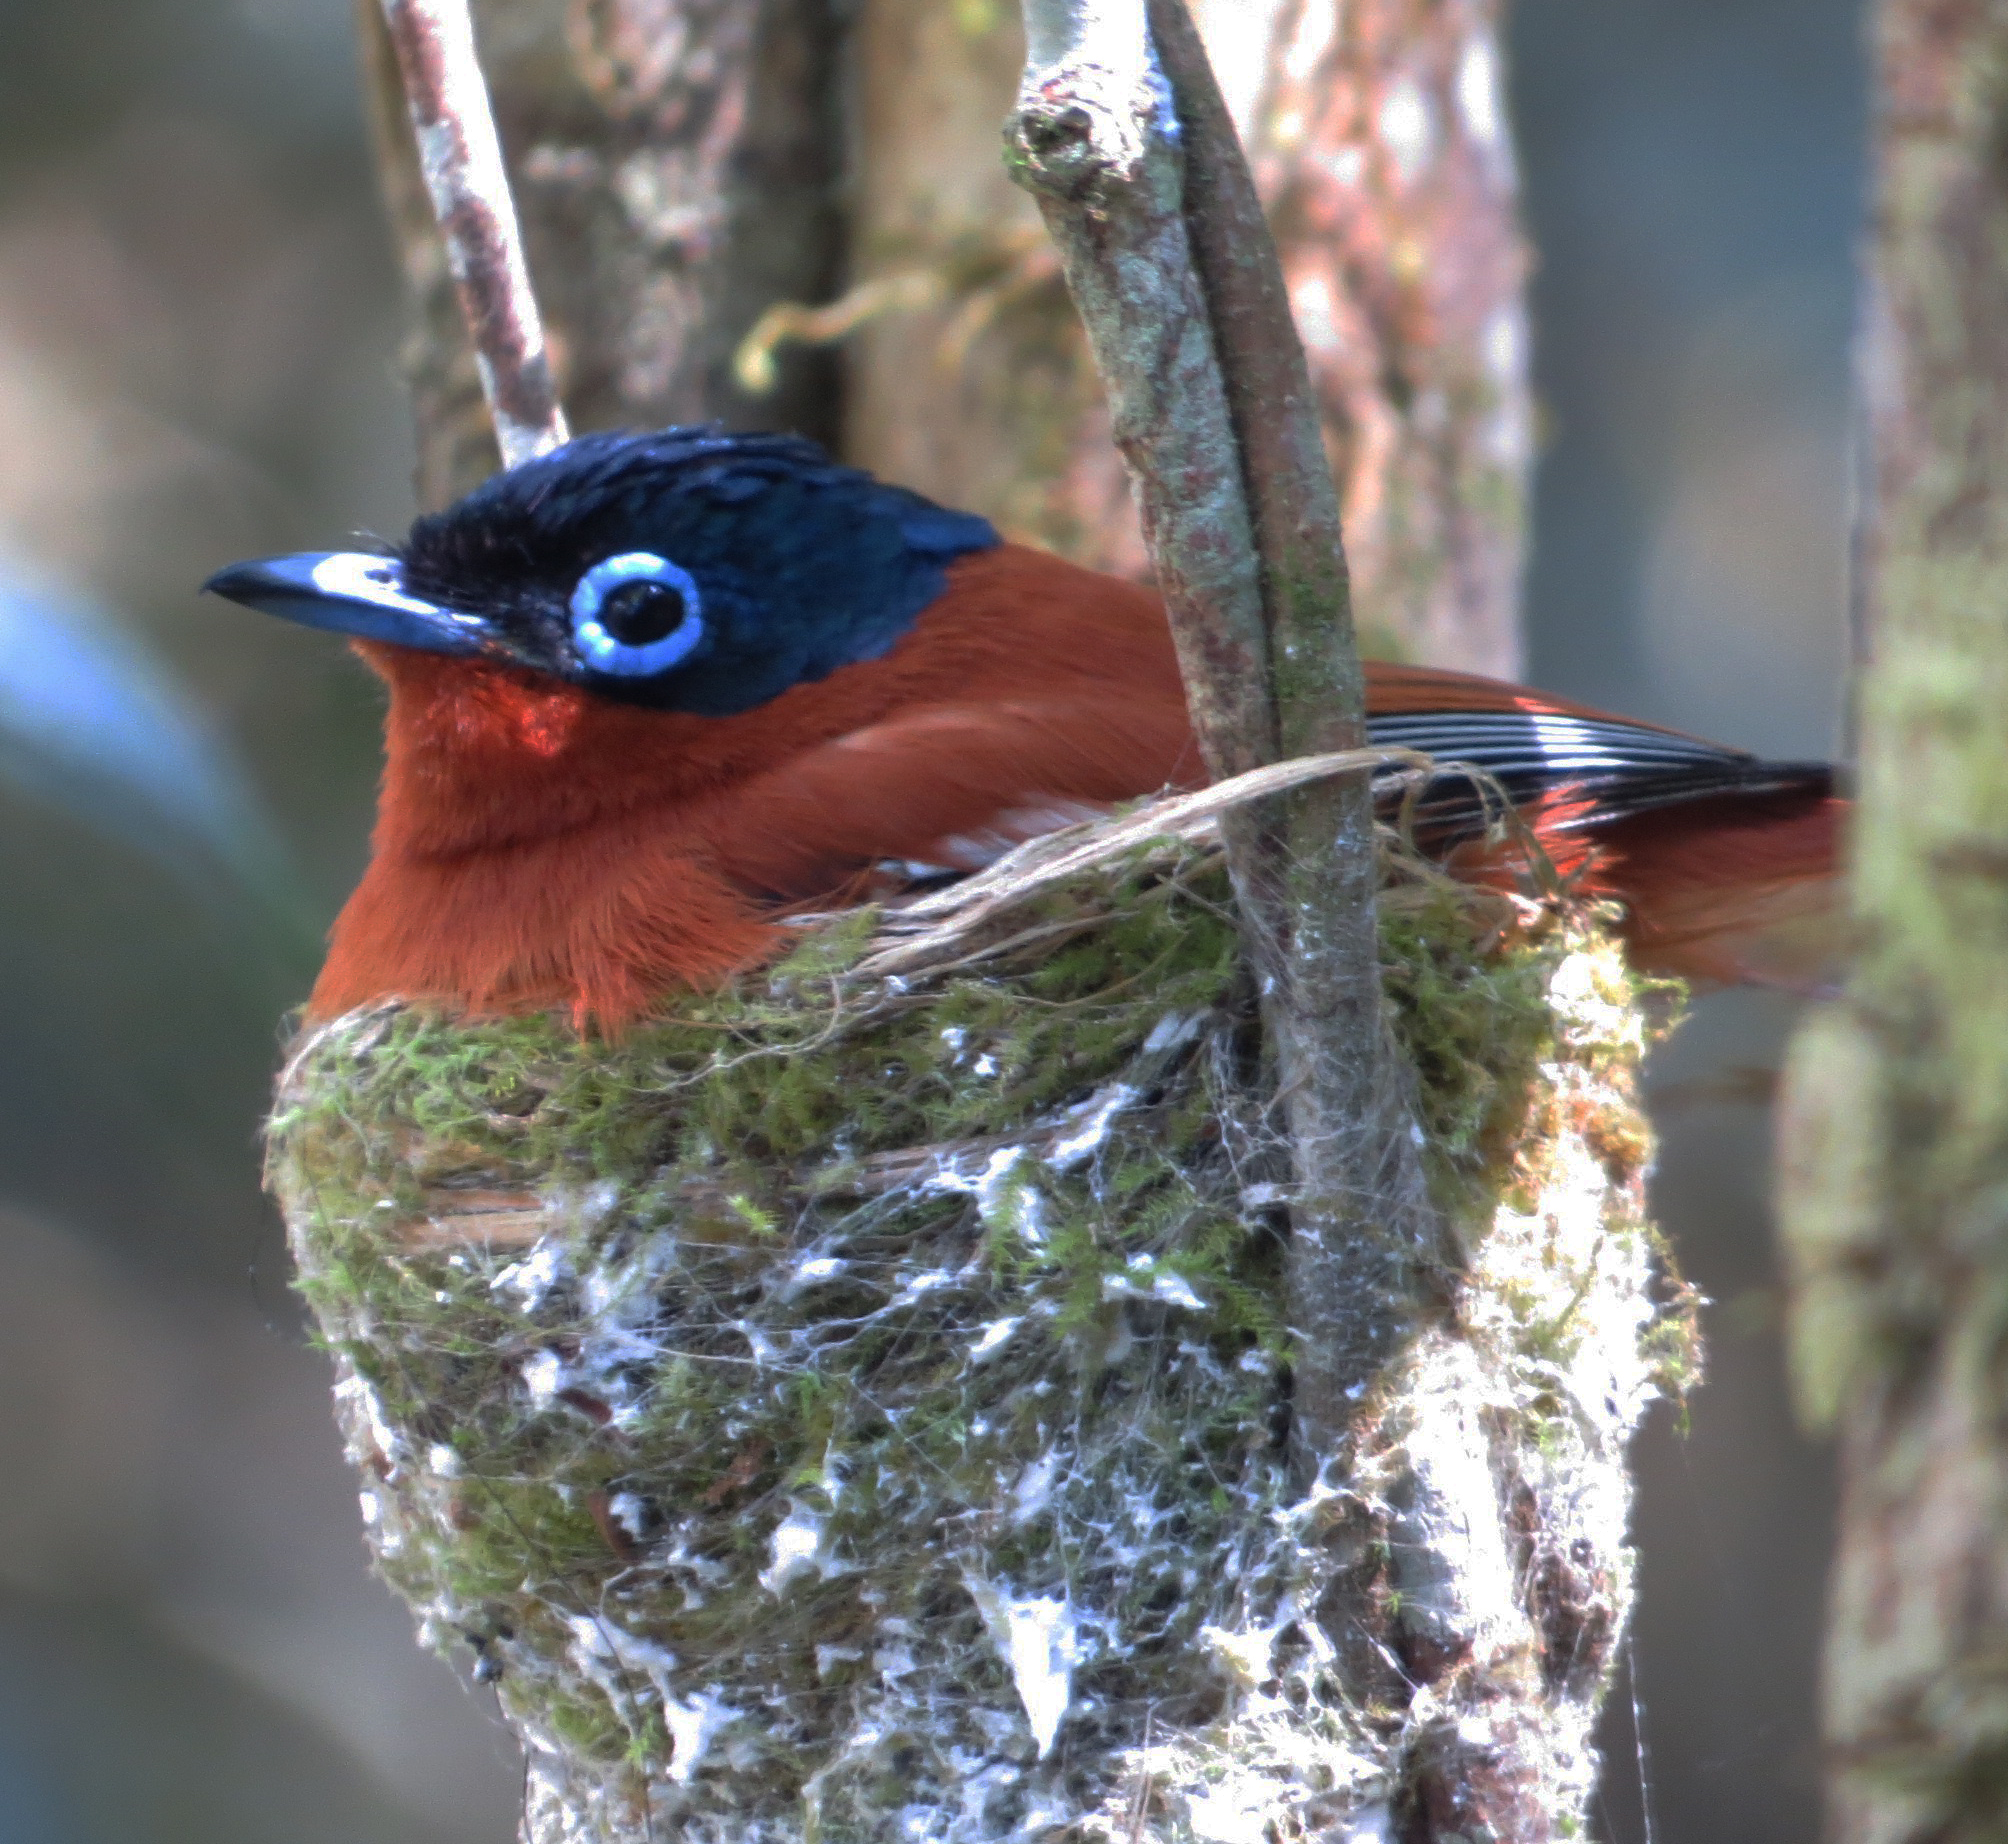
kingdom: Animalia
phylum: Chordata
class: Aves
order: Passeriformes
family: Monarchidae
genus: Terpsiphone
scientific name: Terpsiphone mutata
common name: Malagasy paradise flycatcher
